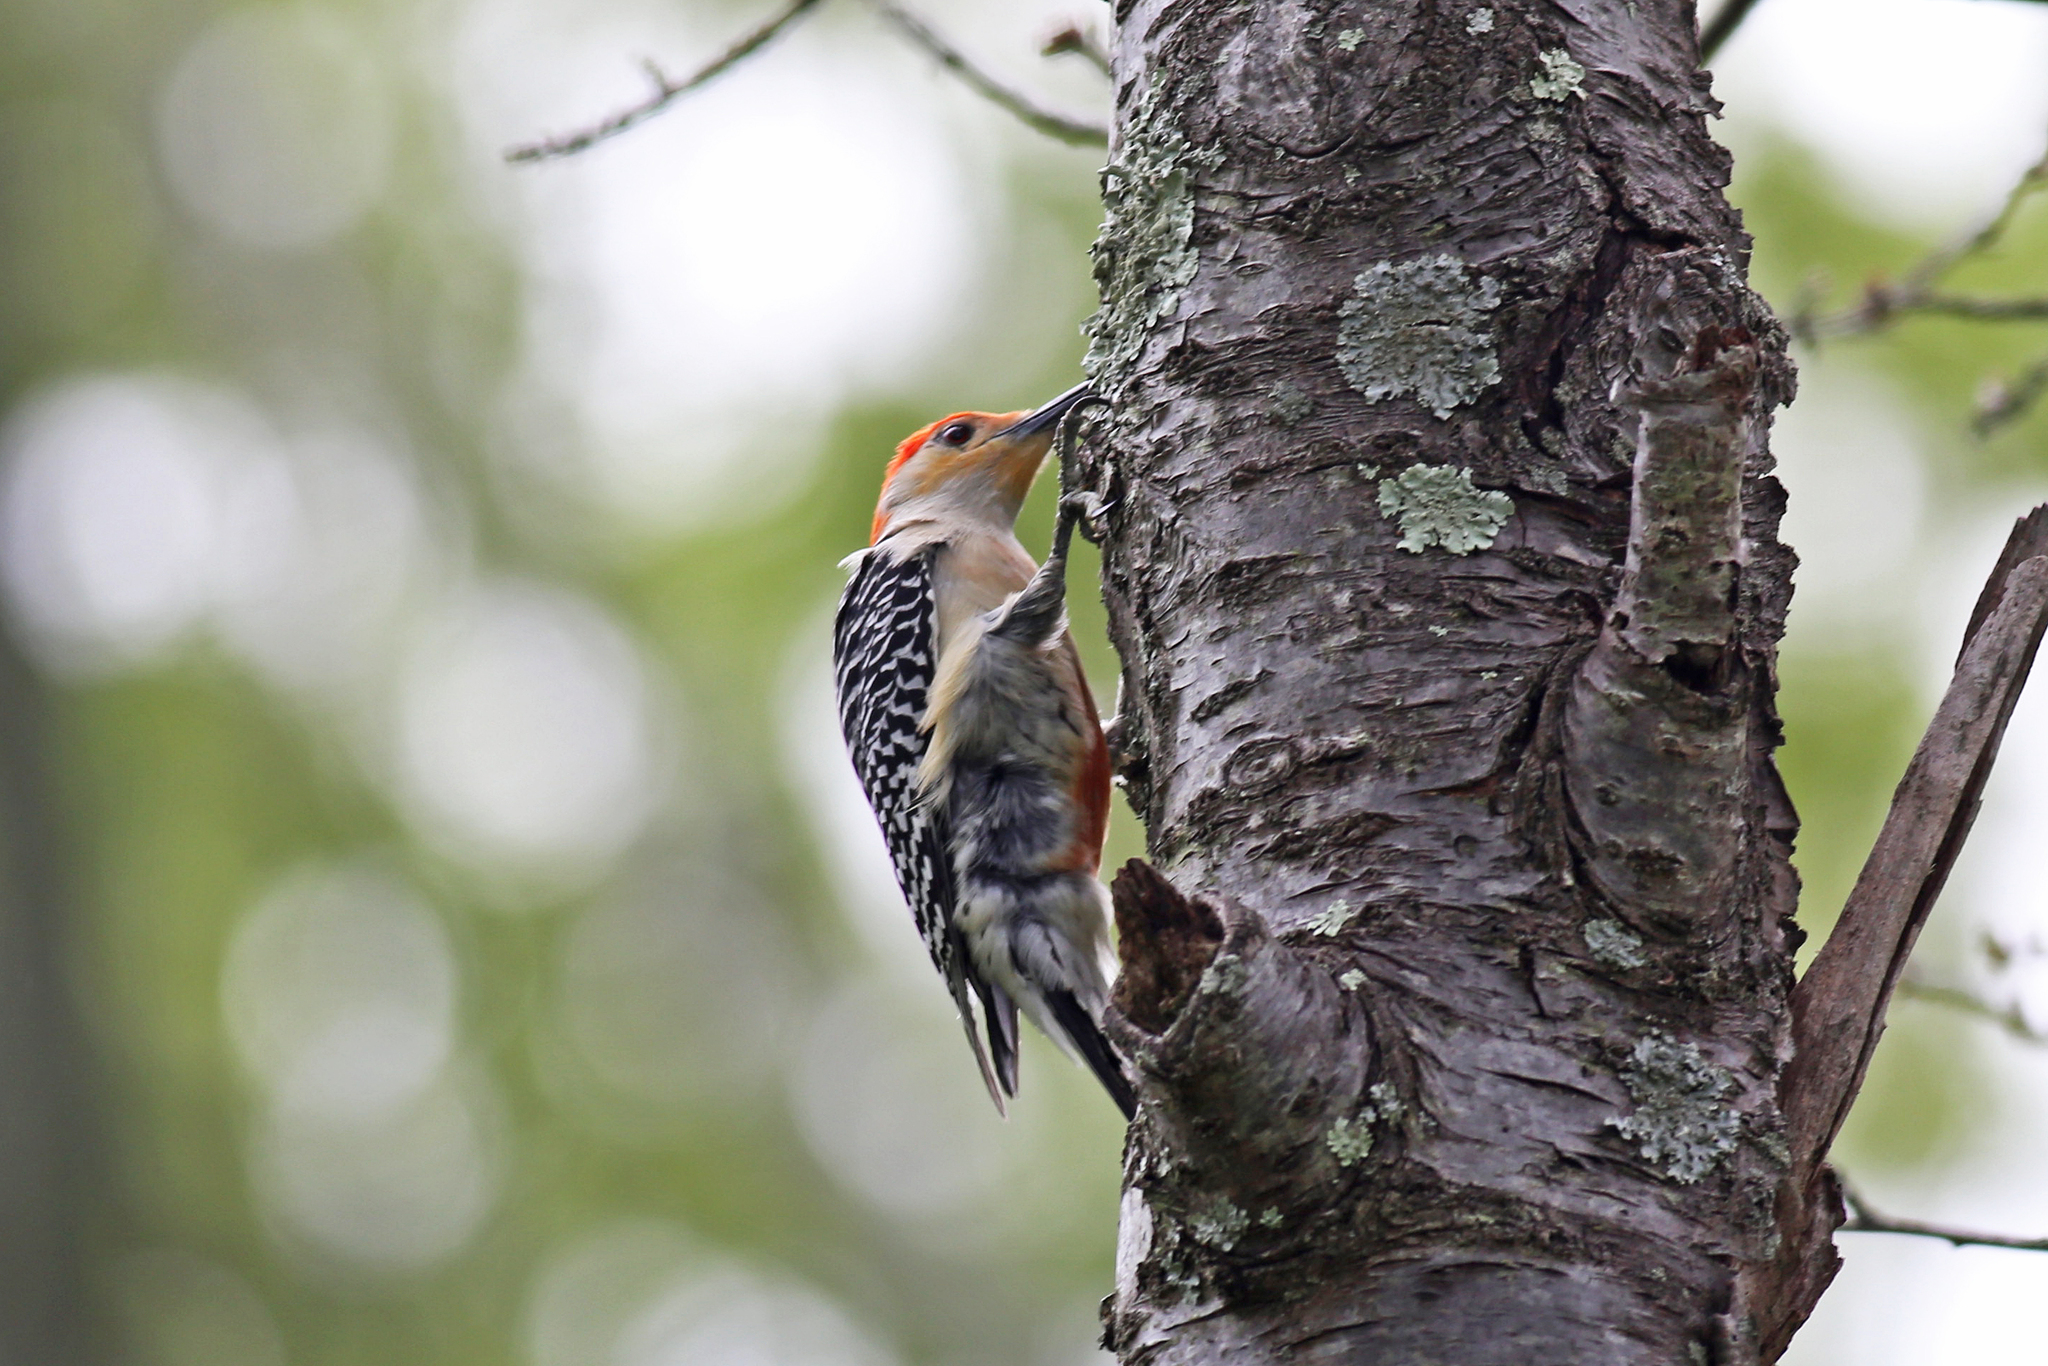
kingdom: Animalia
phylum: Chordata
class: Aves
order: Piciformes
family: Picidae
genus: Melanerpes
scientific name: Melanerpes carolinus
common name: Red-bellied woodpecker
